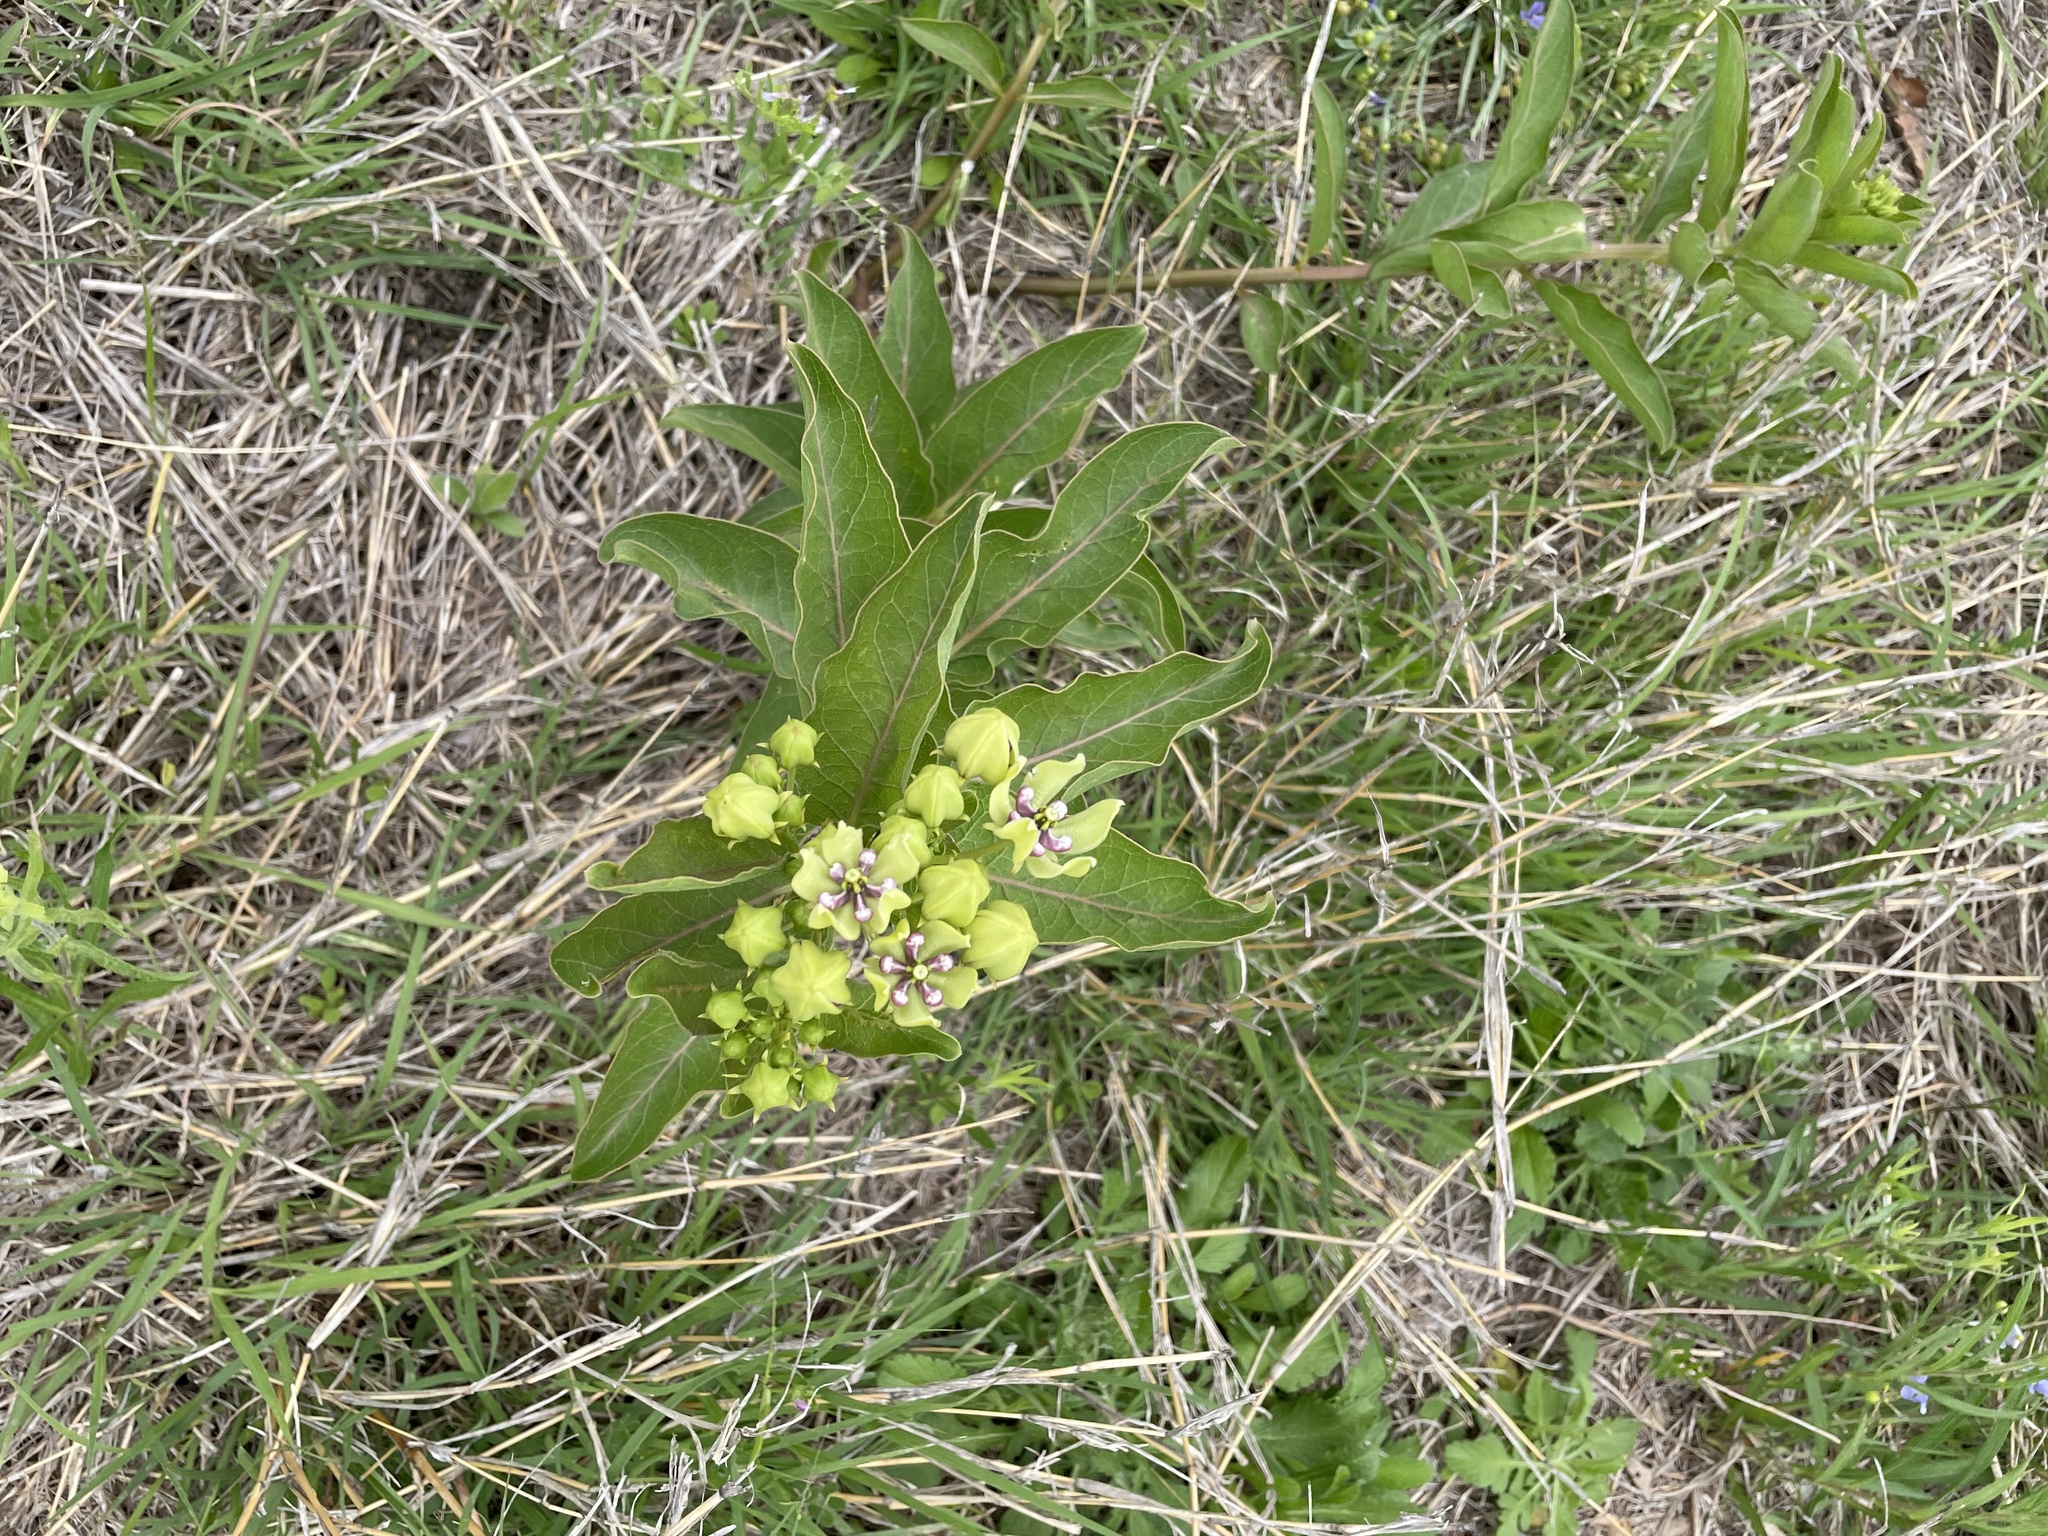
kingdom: Plantae
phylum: Tracheophyta
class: Magnoliopsida
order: Gentianales
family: Apocynaceae
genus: Asclepias
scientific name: Asclepias viridis
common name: Antelope-horns
